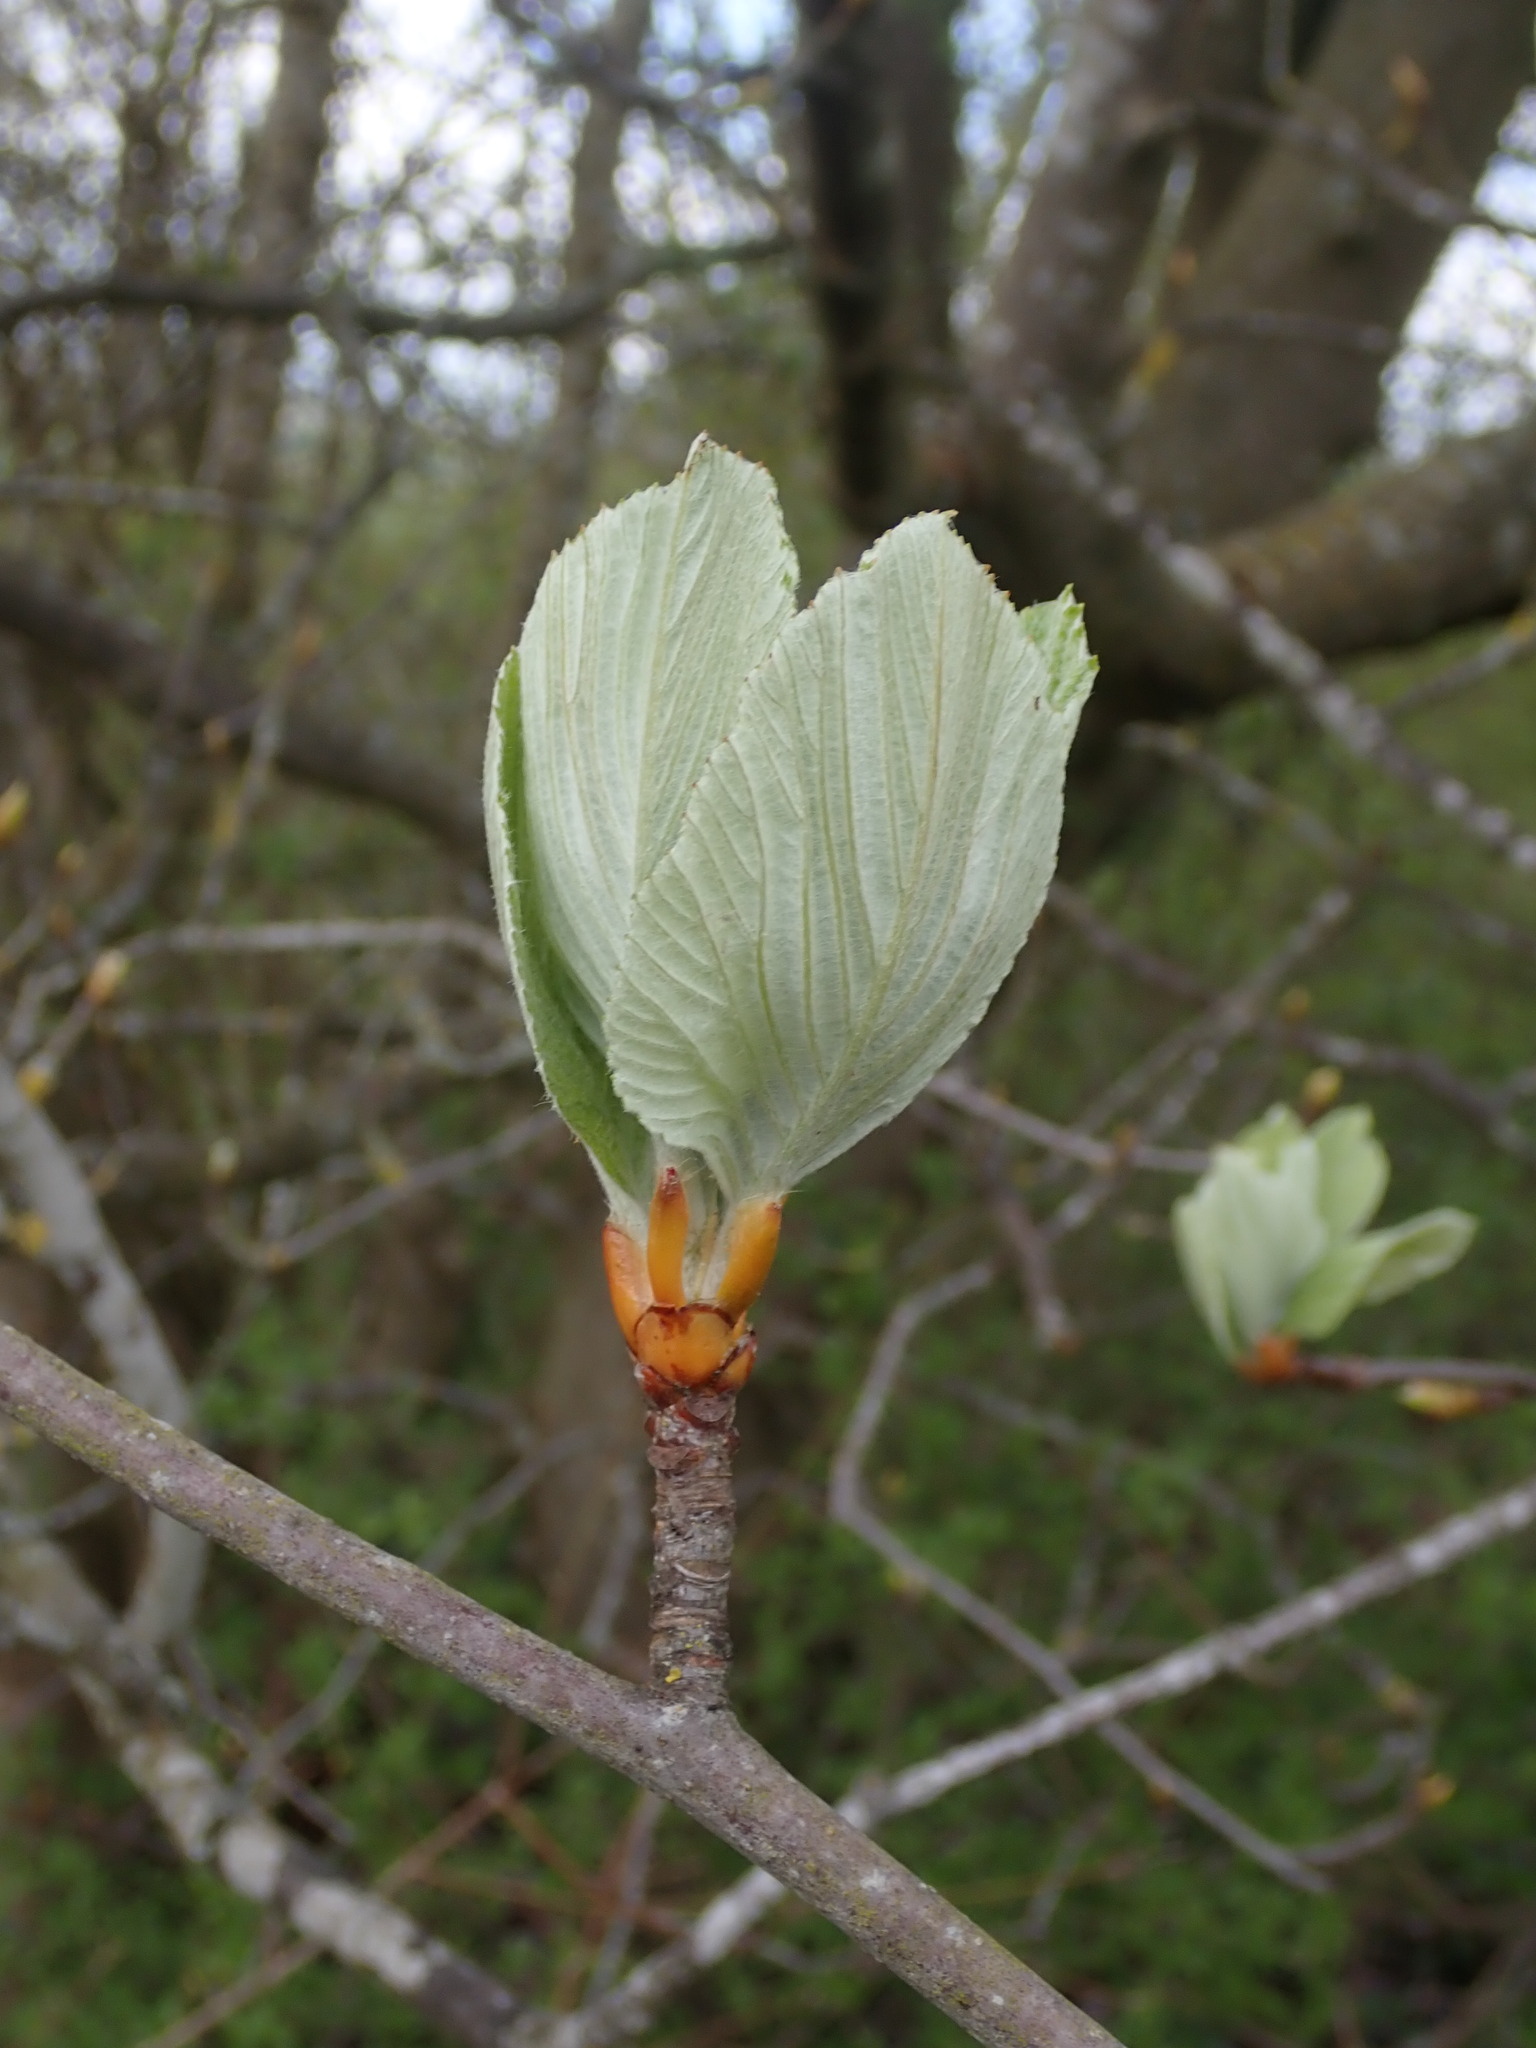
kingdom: Plantae
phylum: Tracheophyta
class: Magnoliopsida
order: Rosales
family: Rosaceae
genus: Aria
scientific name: Aria edulis
